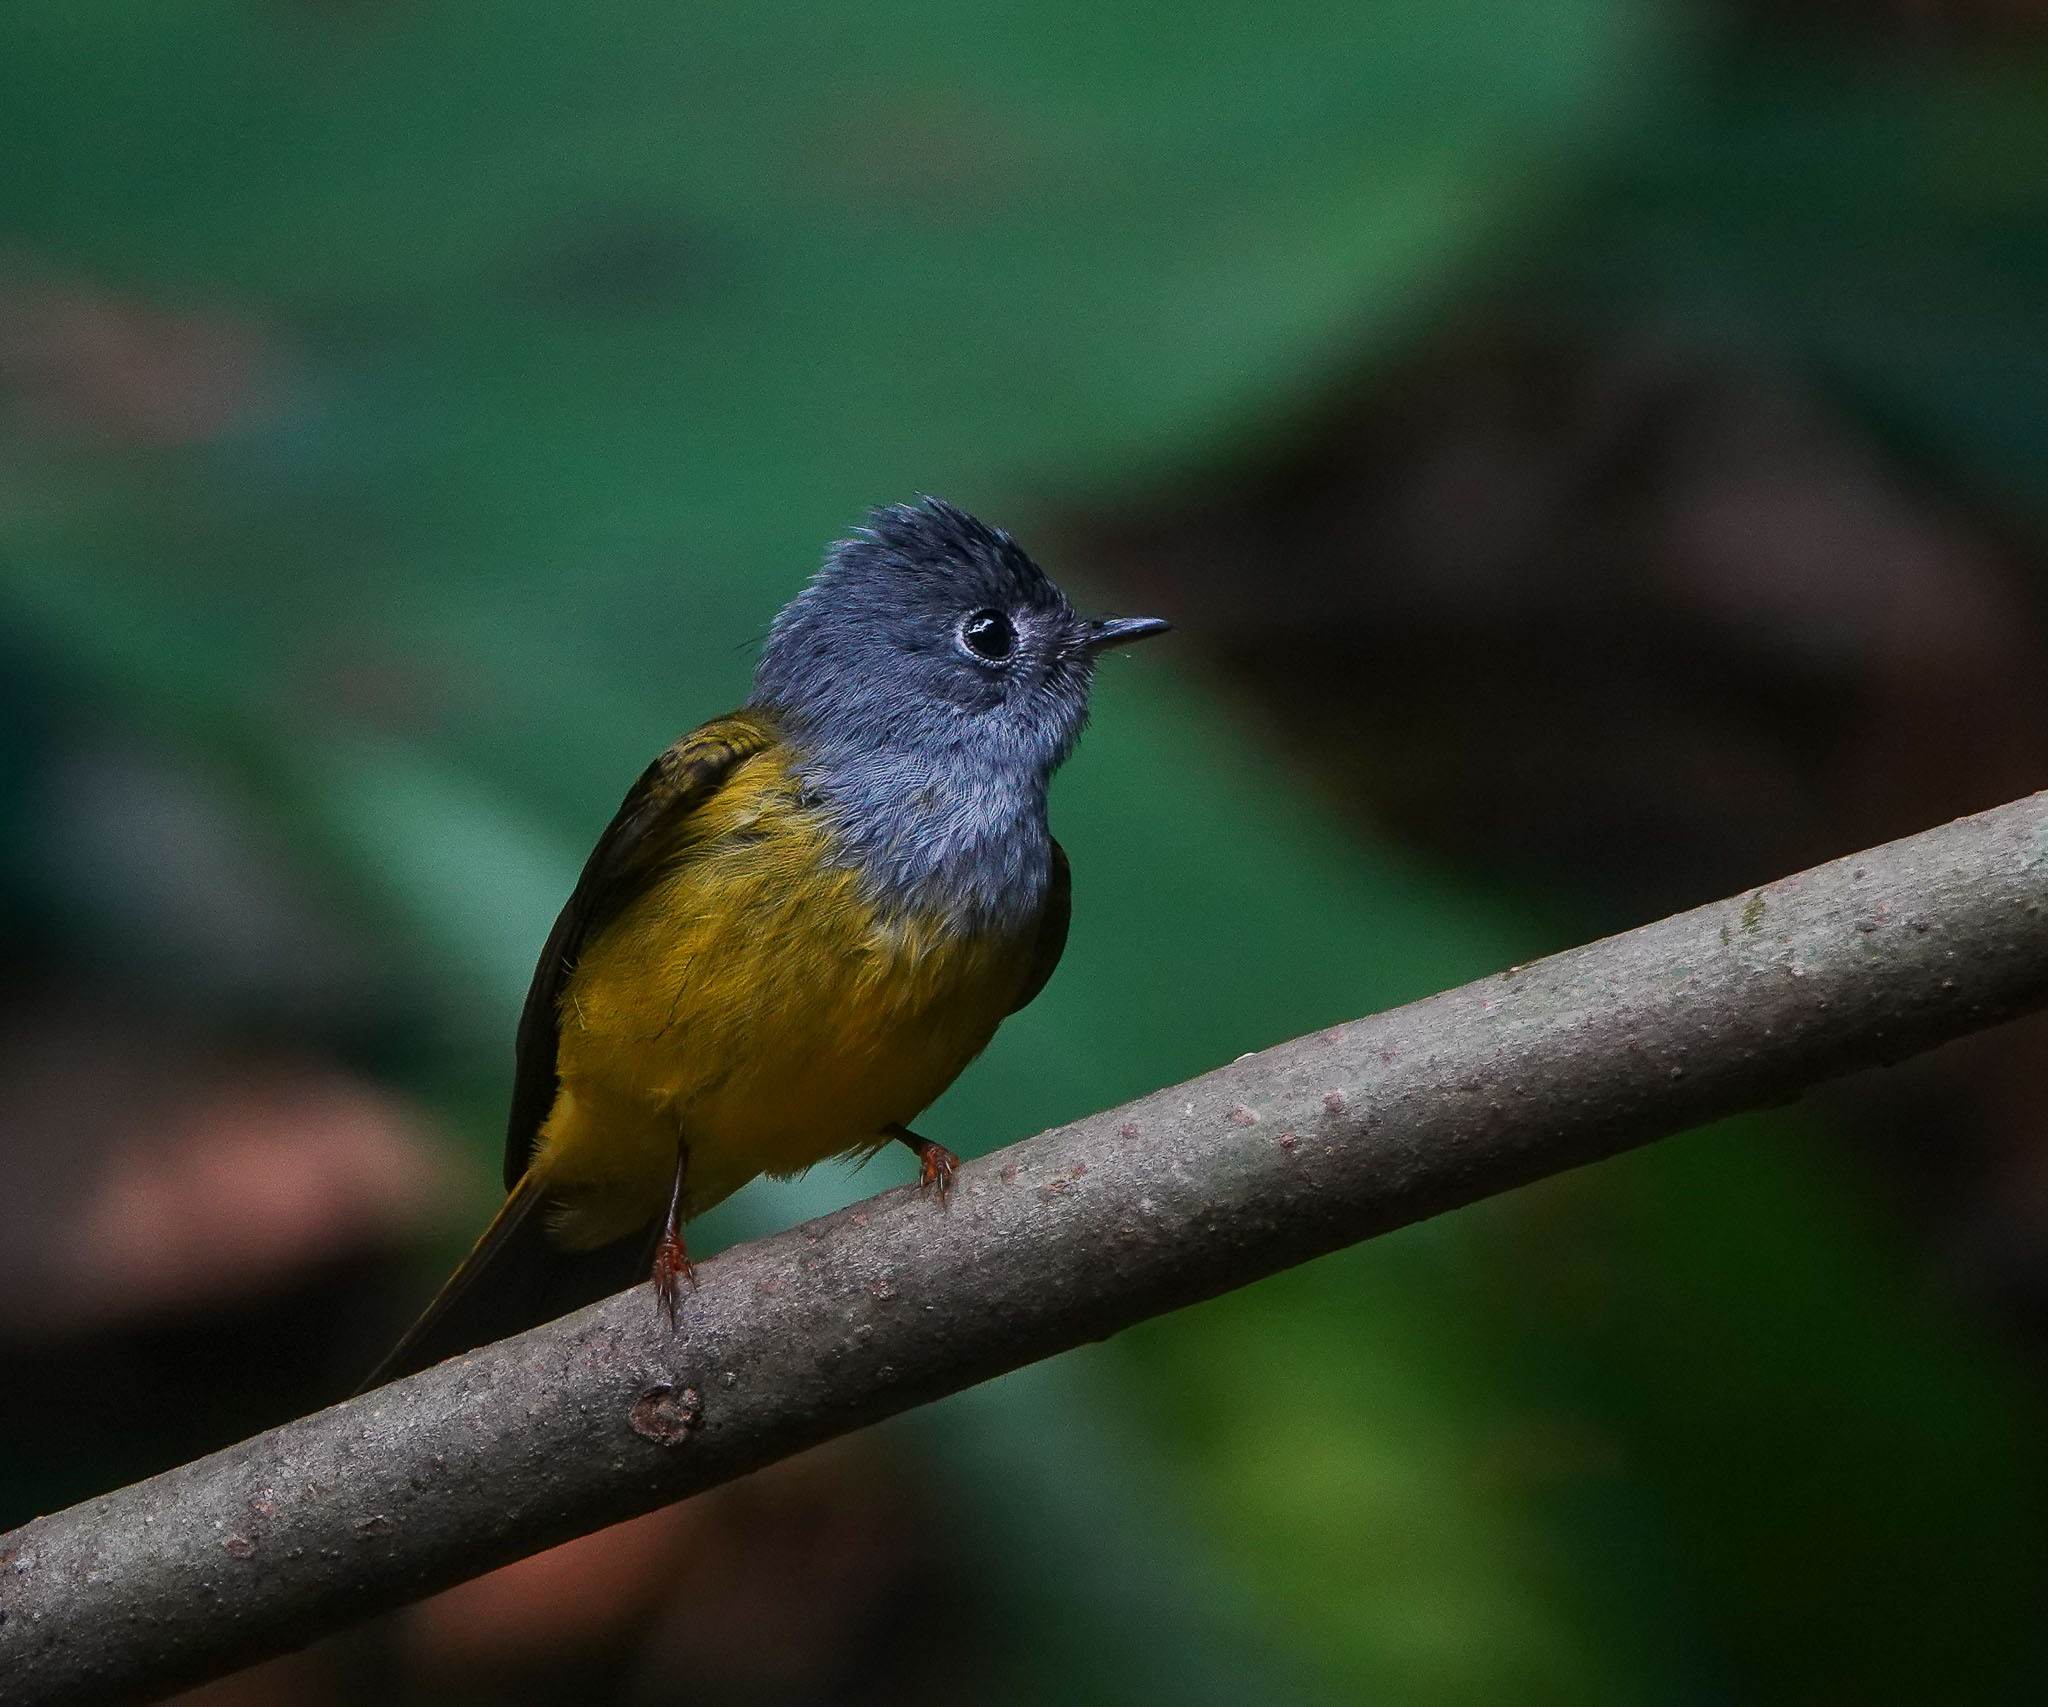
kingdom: Animalia
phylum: Chordata
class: Aves
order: Passeriformes
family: Stenostiridae
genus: Culicicapa
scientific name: Culicicapa ceylonensis
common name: Grey-headed canary-flycatcher
